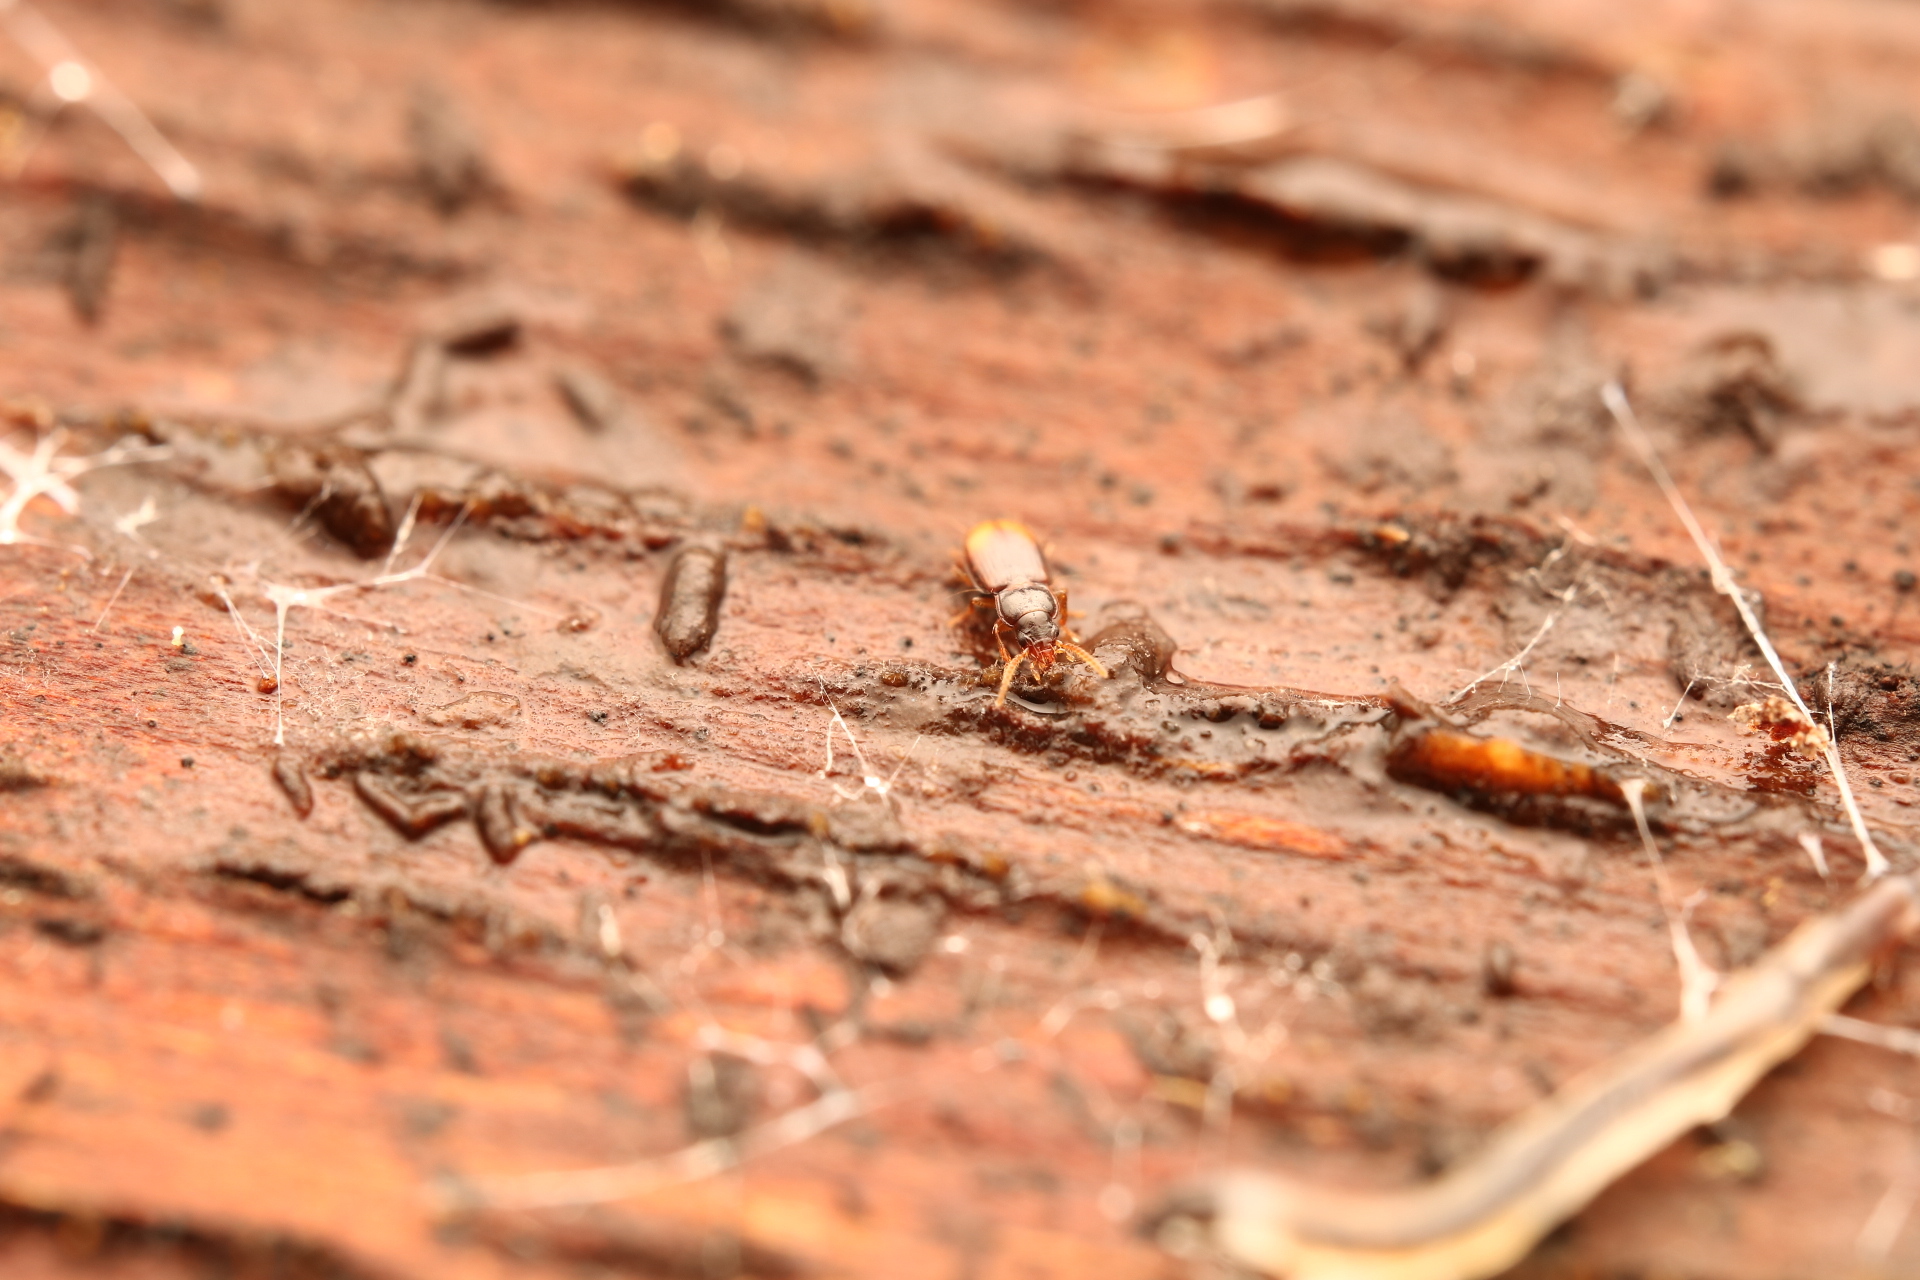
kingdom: Animalia
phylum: Arthropoda
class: Insecta
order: Coleoptera
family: Carabidae
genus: Mioptachys
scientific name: Mioptachys flavicauda
